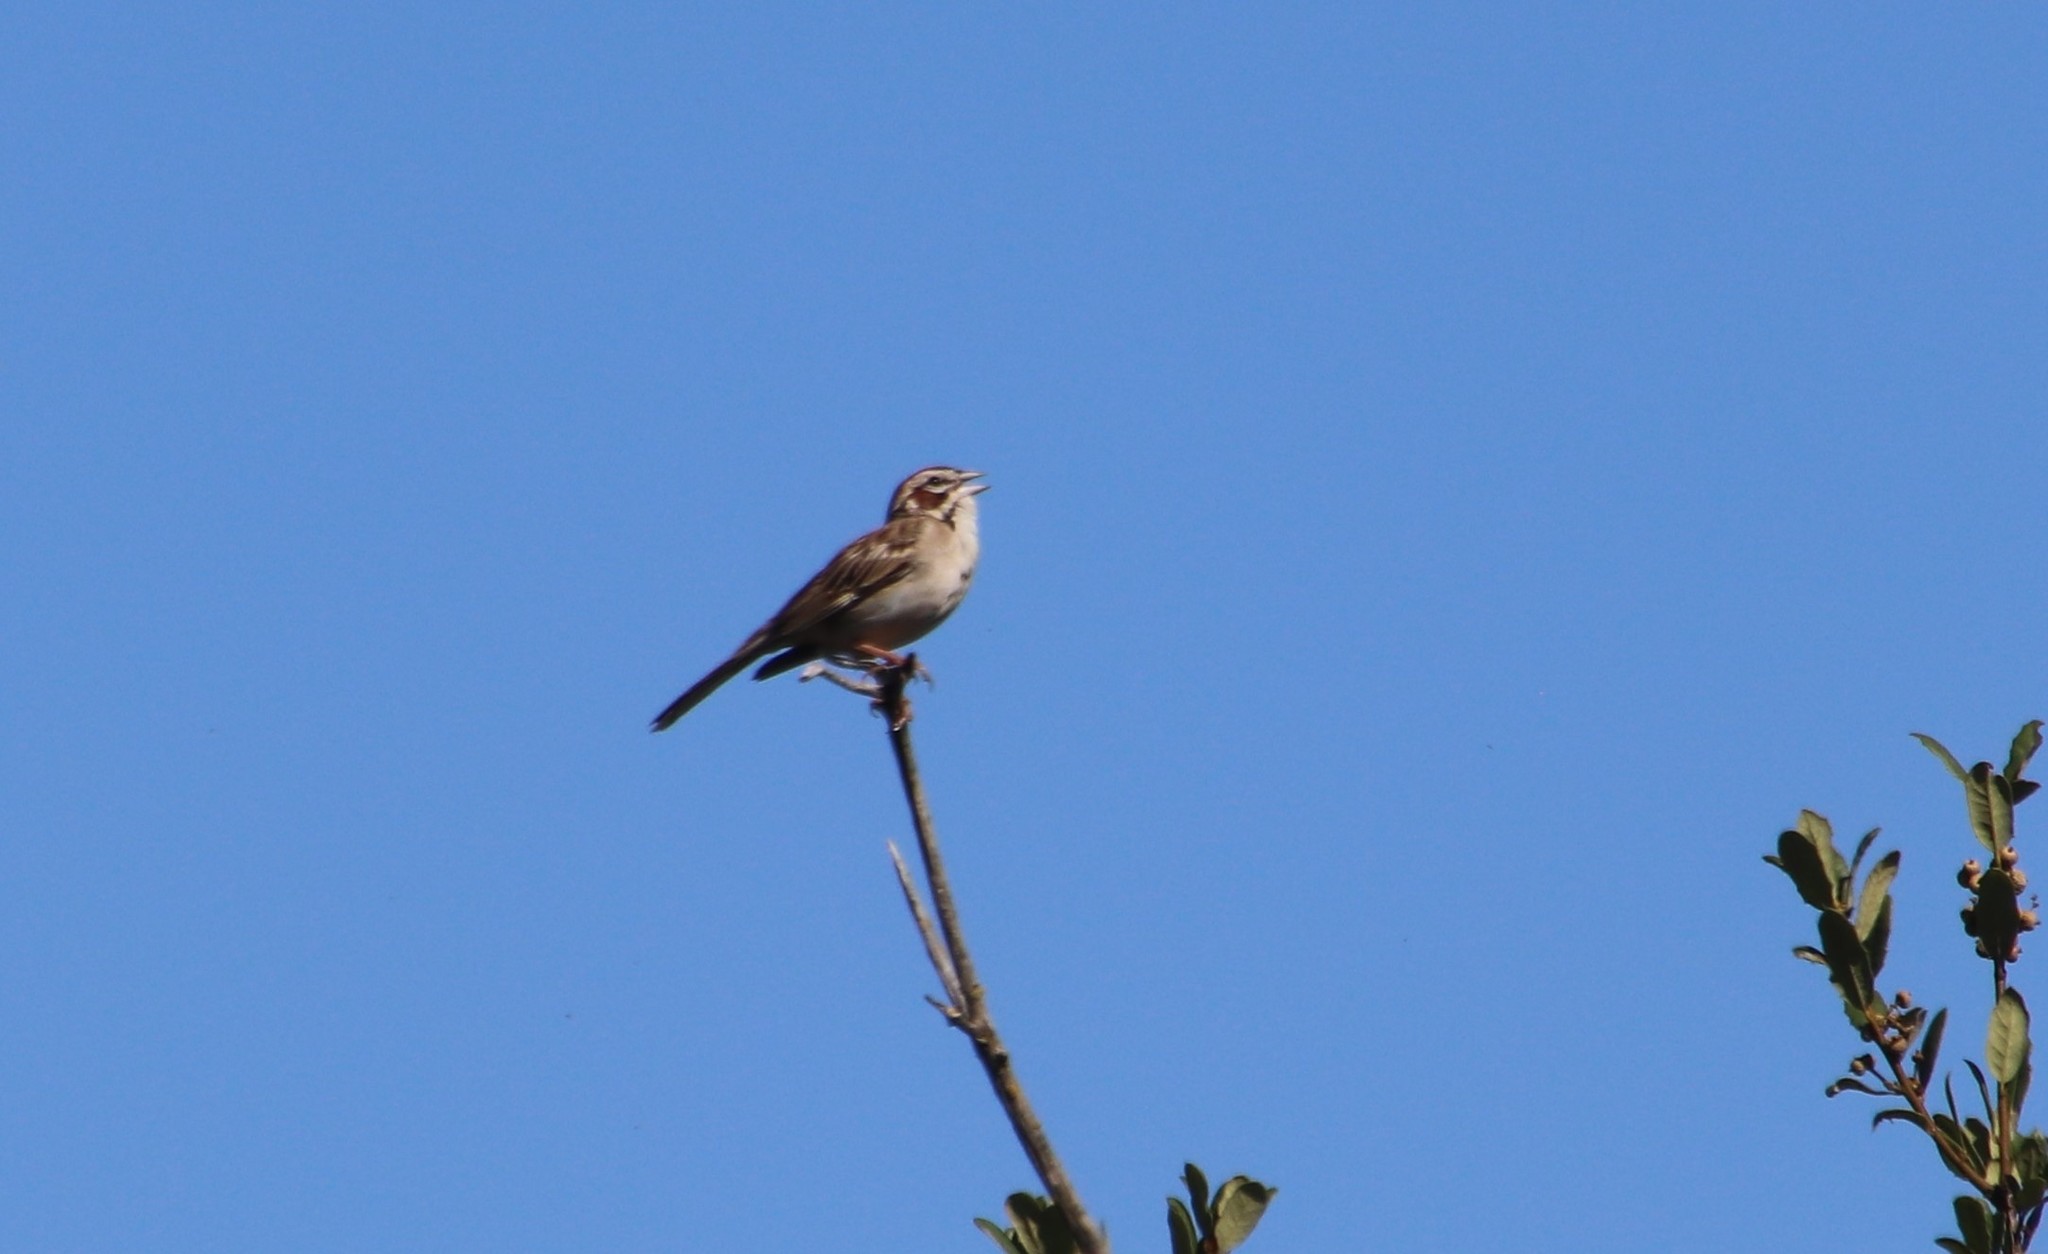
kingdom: Animalia
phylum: Chordata
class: Aves
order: Passeriformes
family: Passerellidae
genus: Chondestes
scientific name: Chondestes grammacus
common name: Lark sparrow
